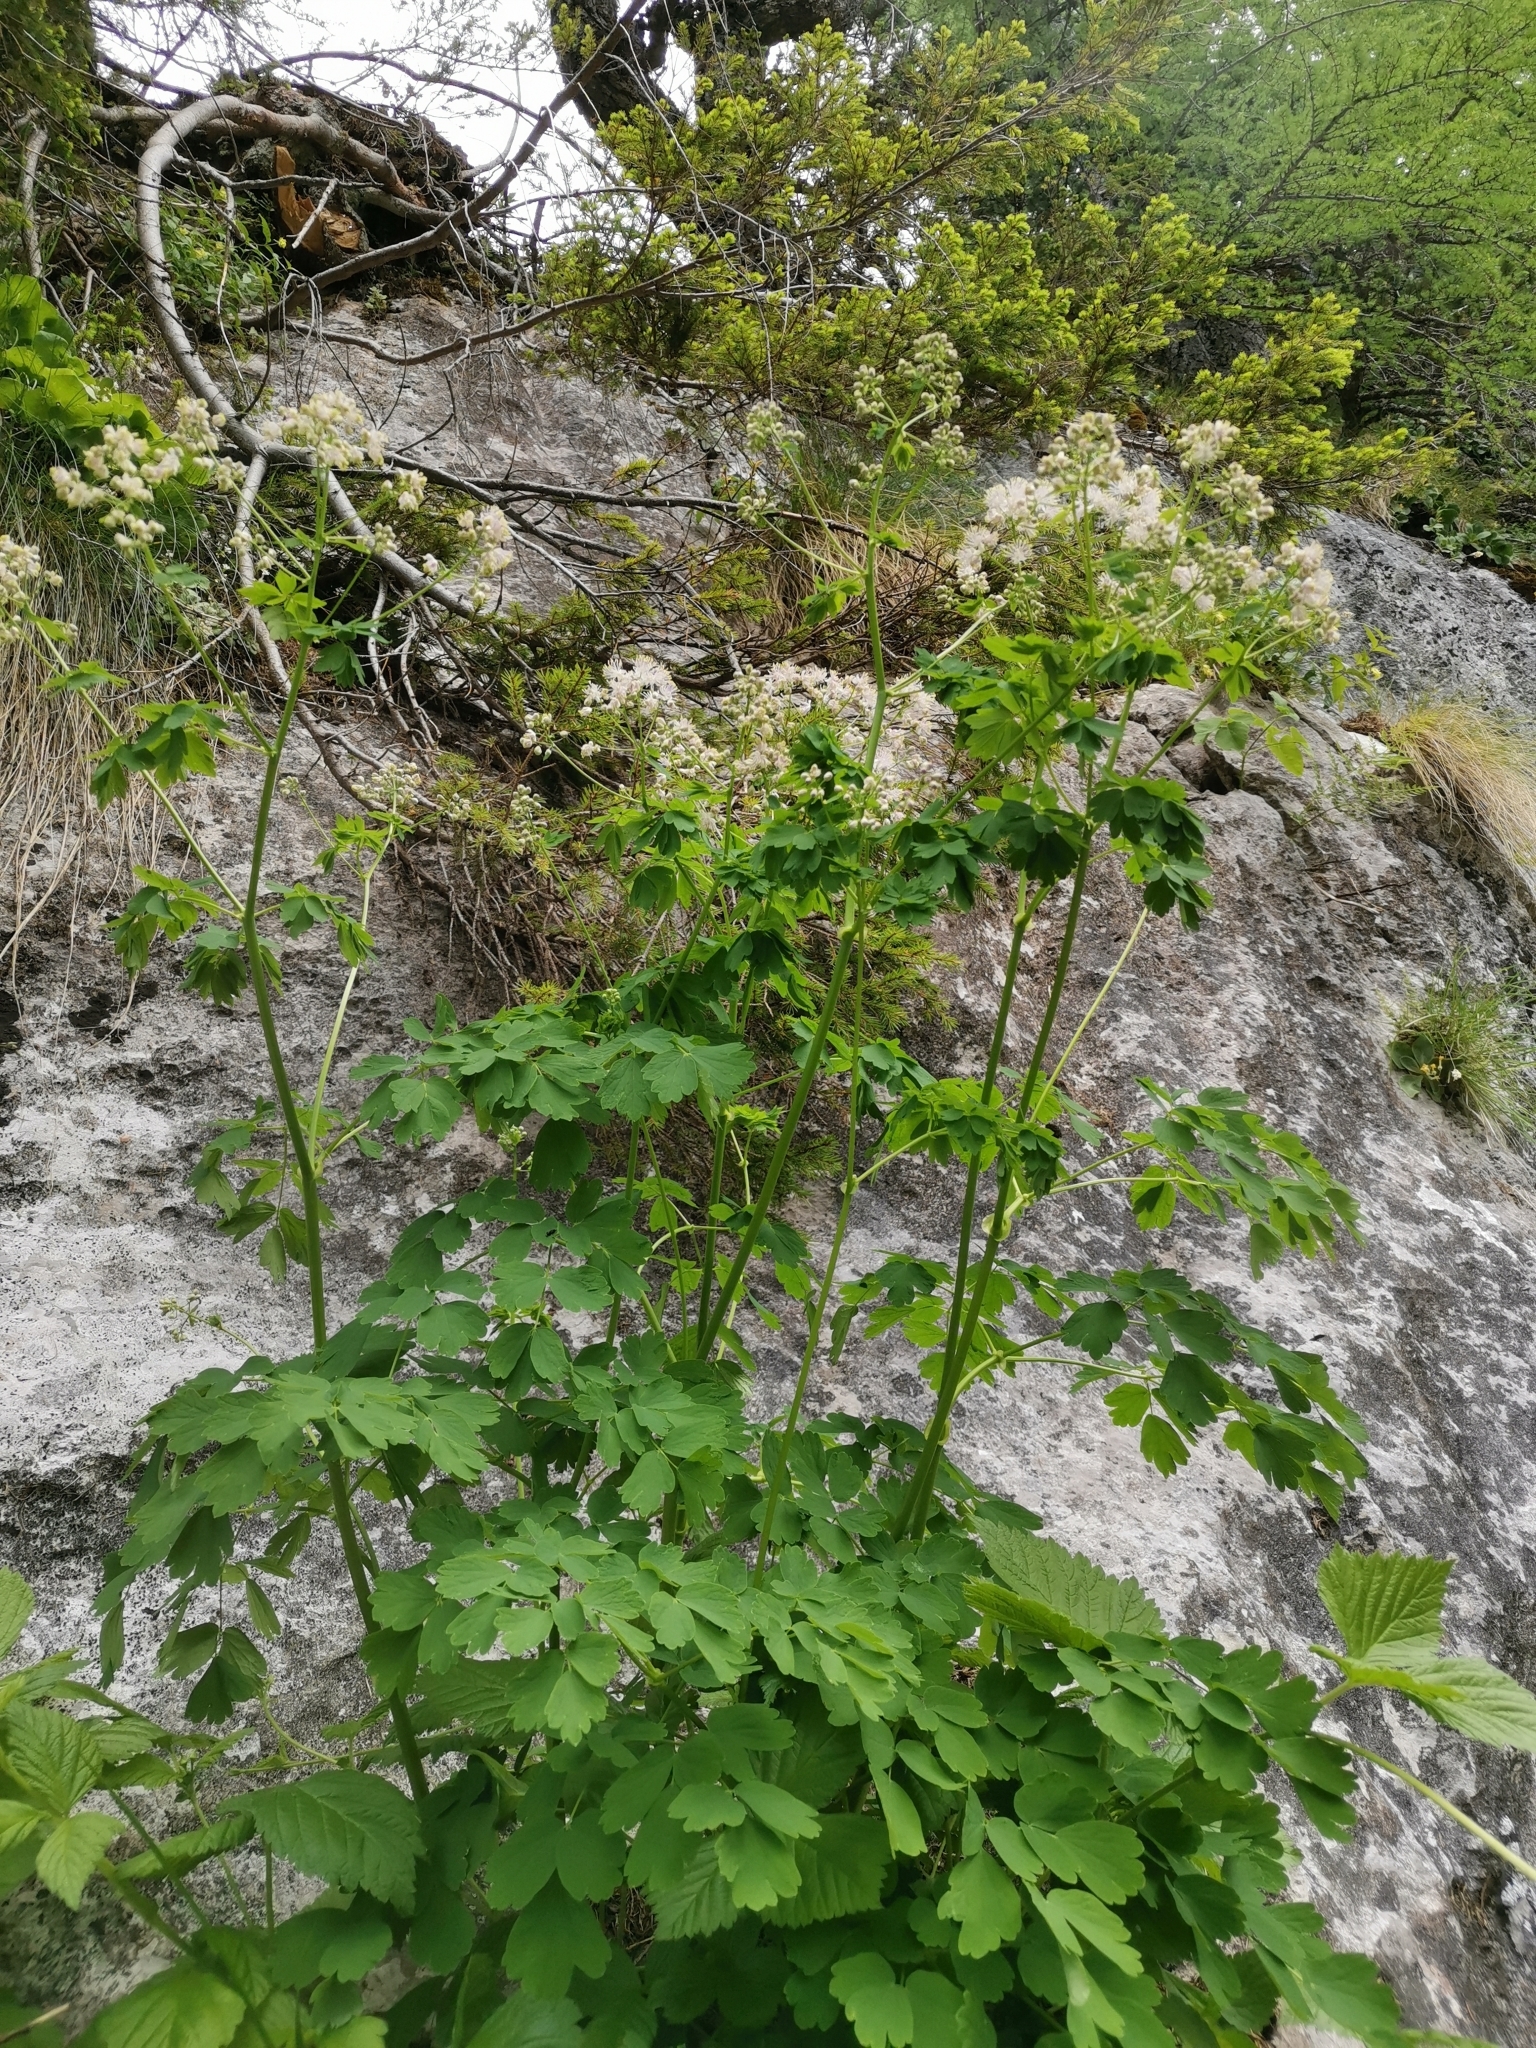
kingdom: Plantae
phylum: Tracheophyta
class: Magnoliopsida
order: Ranunculales
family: Ranunculaceae
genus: Thalictrum
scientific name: Thalictrum aquilegiifolium
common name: French meadow-rue
